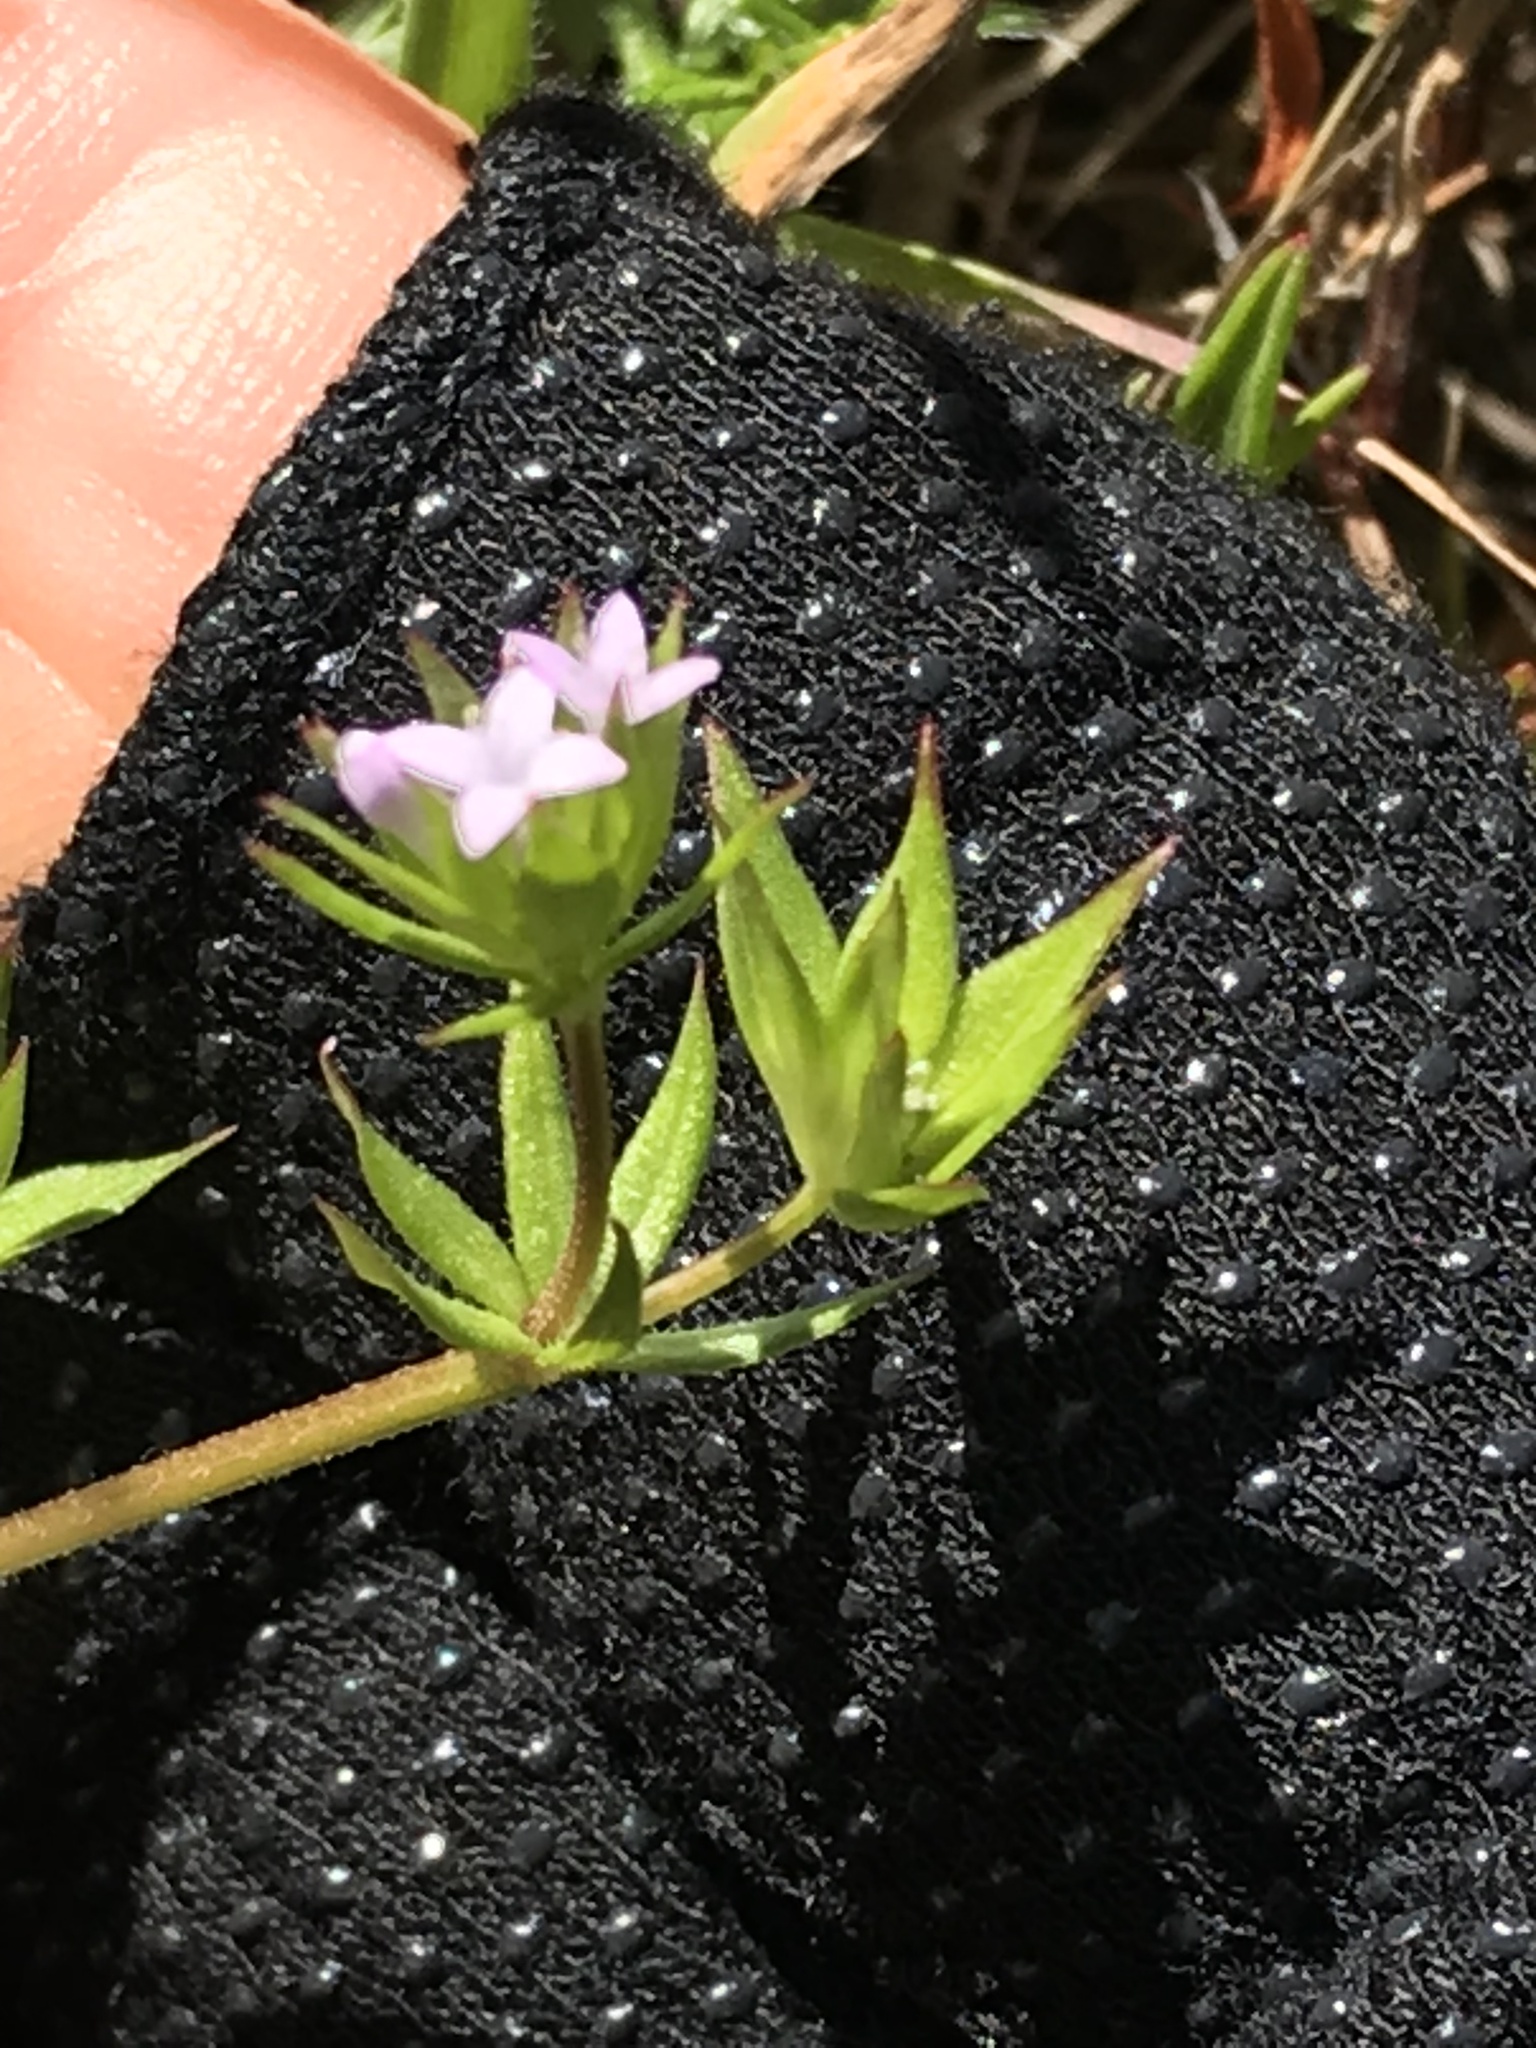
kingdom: Plantae
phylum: Tracheophyta
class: Magnoliopsida
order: Gentianales
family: Rubiaceae
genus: Sherardia
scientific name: Sherardia arvensis
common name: Field madder
